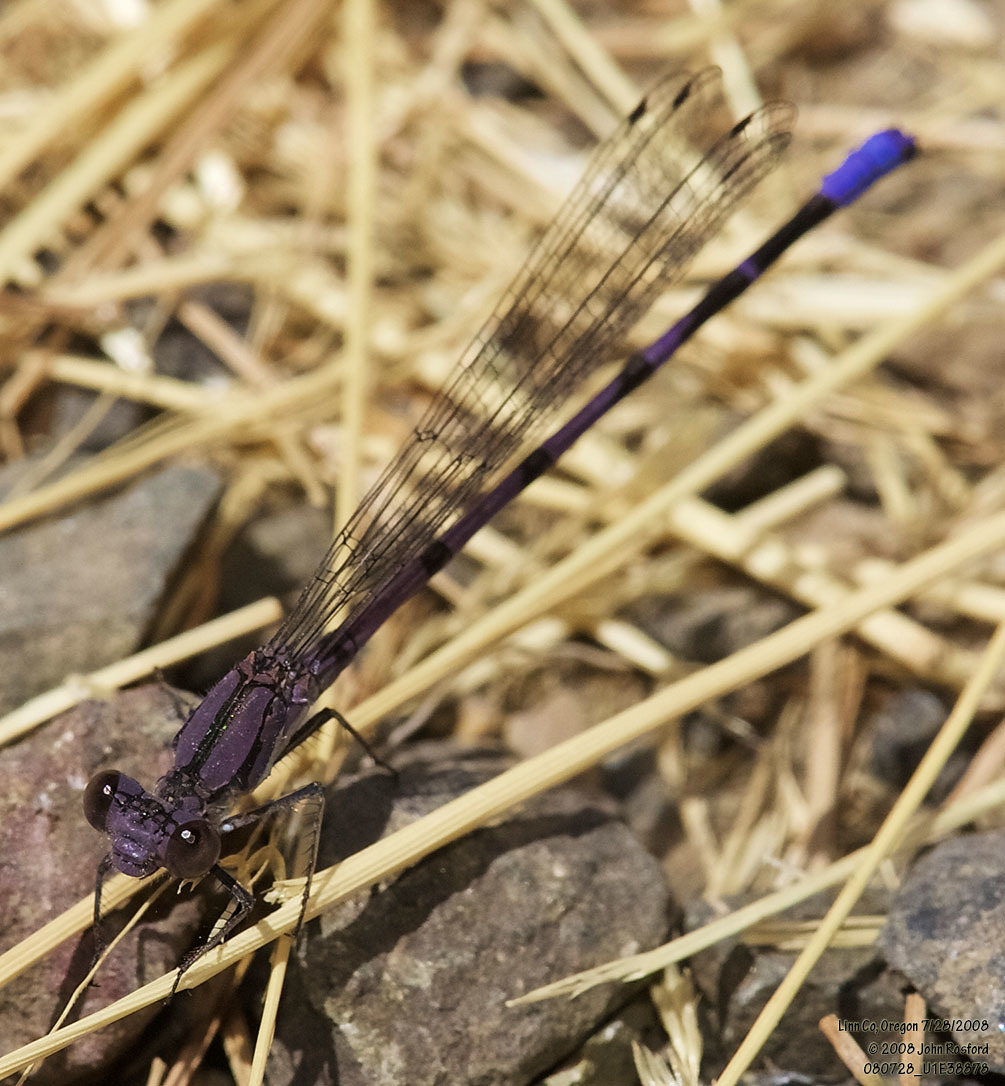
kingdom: Animalia
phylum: Arthropoda
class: Insecta
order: Odonata
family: Coenagrionidae
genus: Argia
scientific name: Argia emma
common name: Emma's dancer
